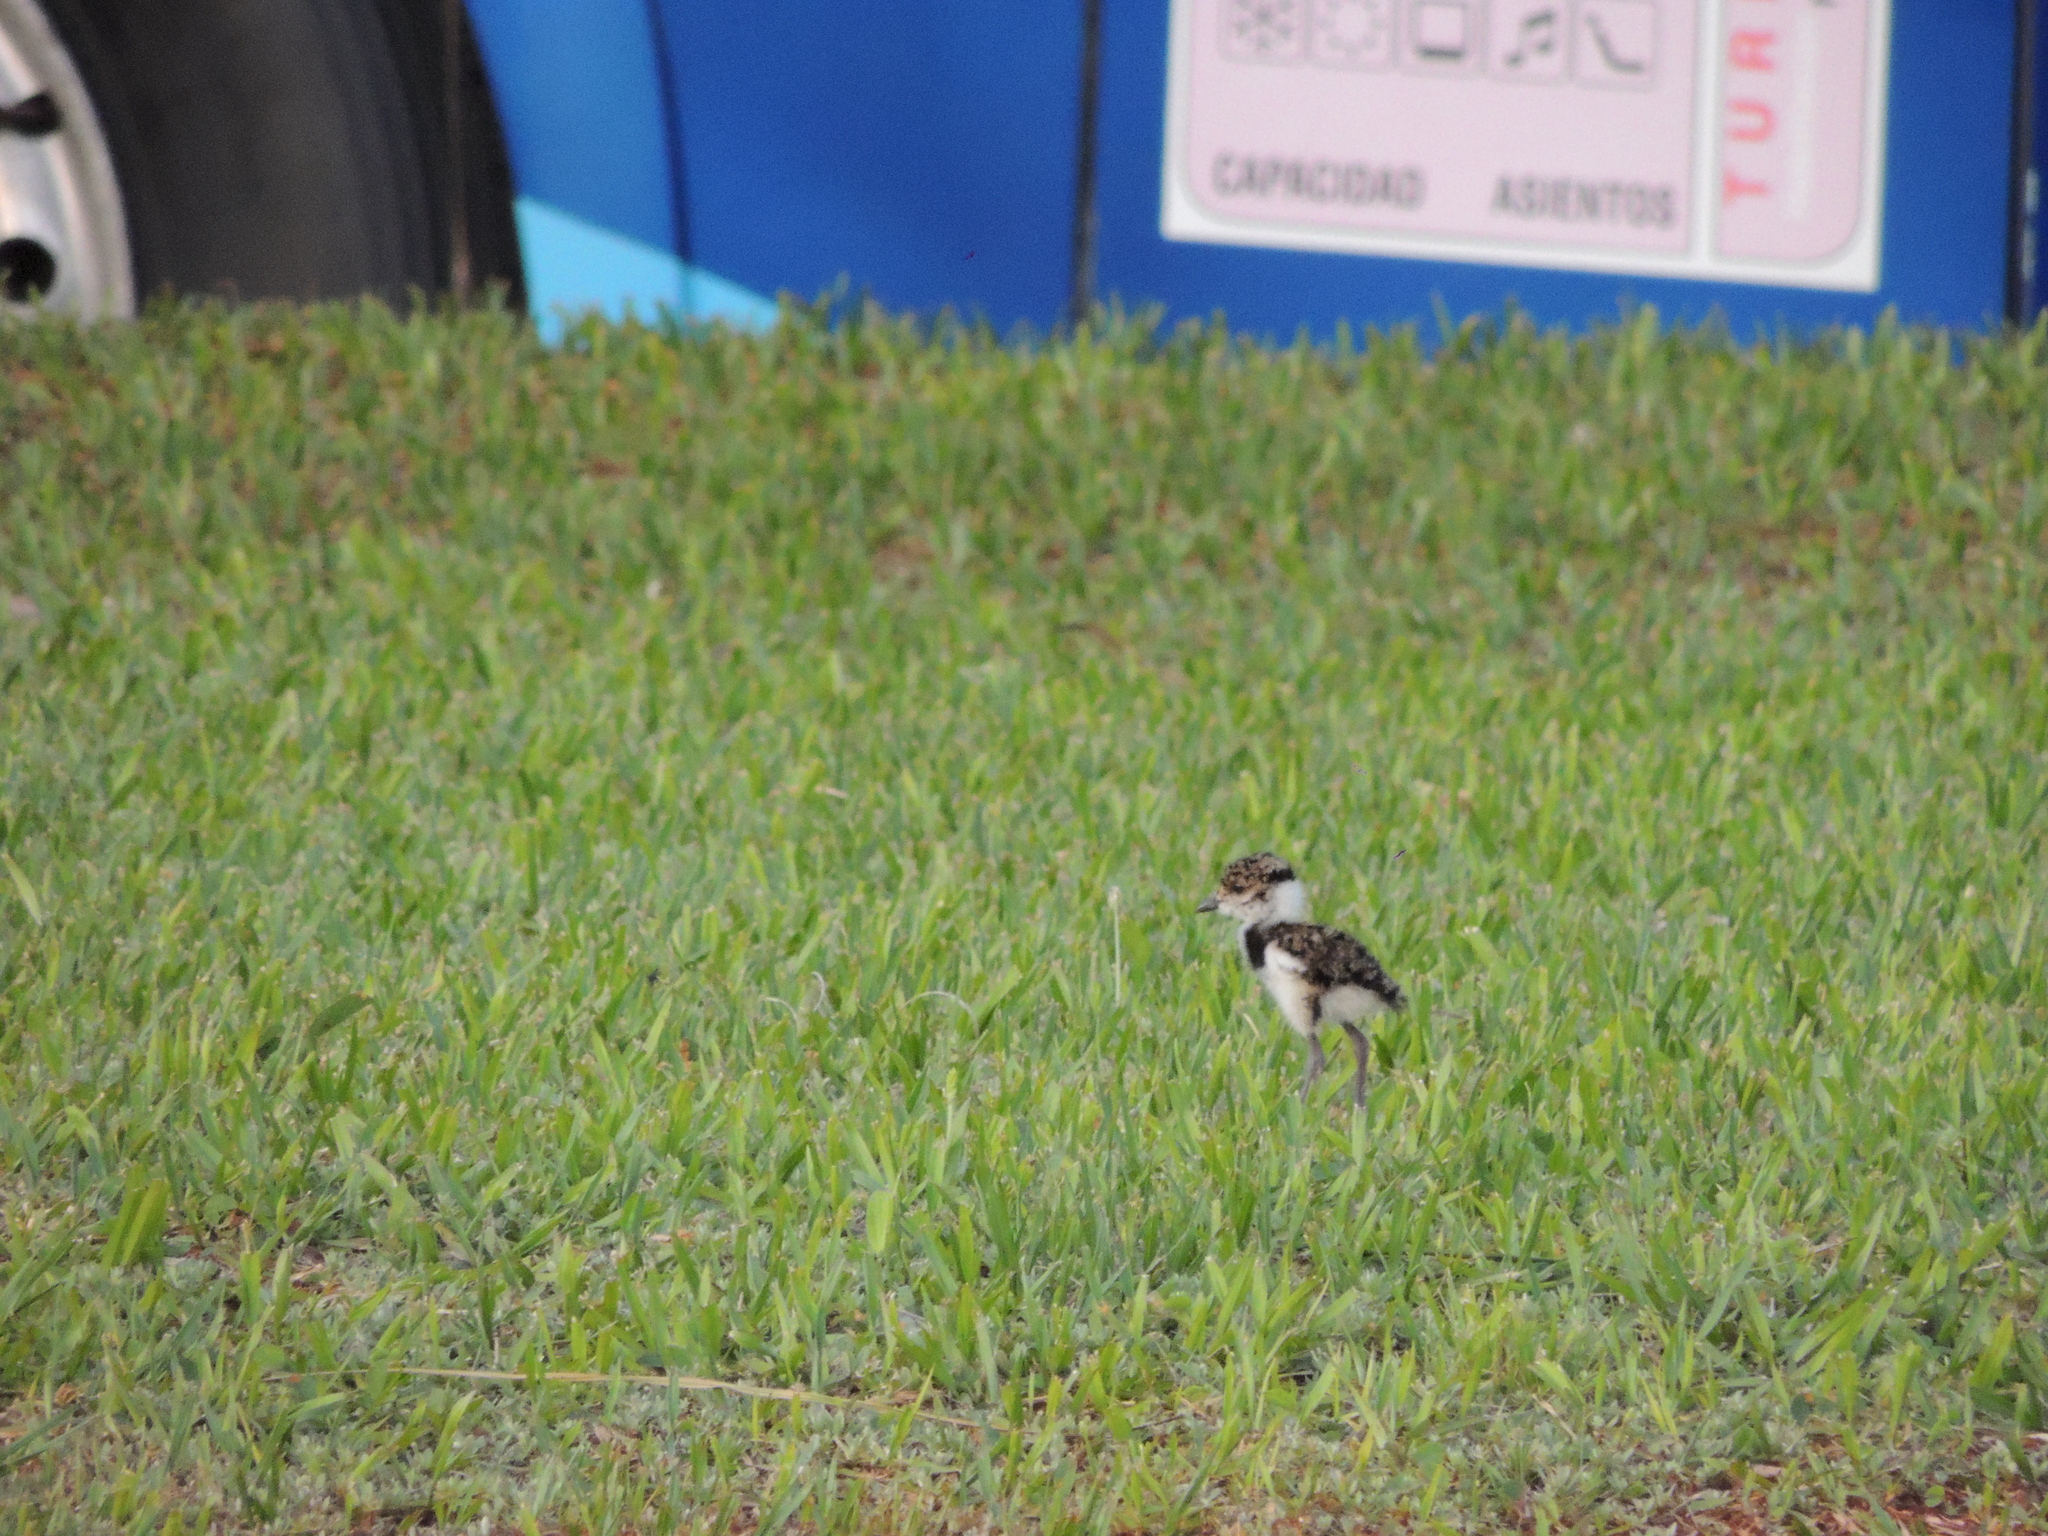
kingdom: Animalia
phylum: Chordata
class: Aves
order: Charadriiformes
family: Charadriidae
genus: Vanellus
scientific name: Vanellus chilensis
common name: Southern lapwing
